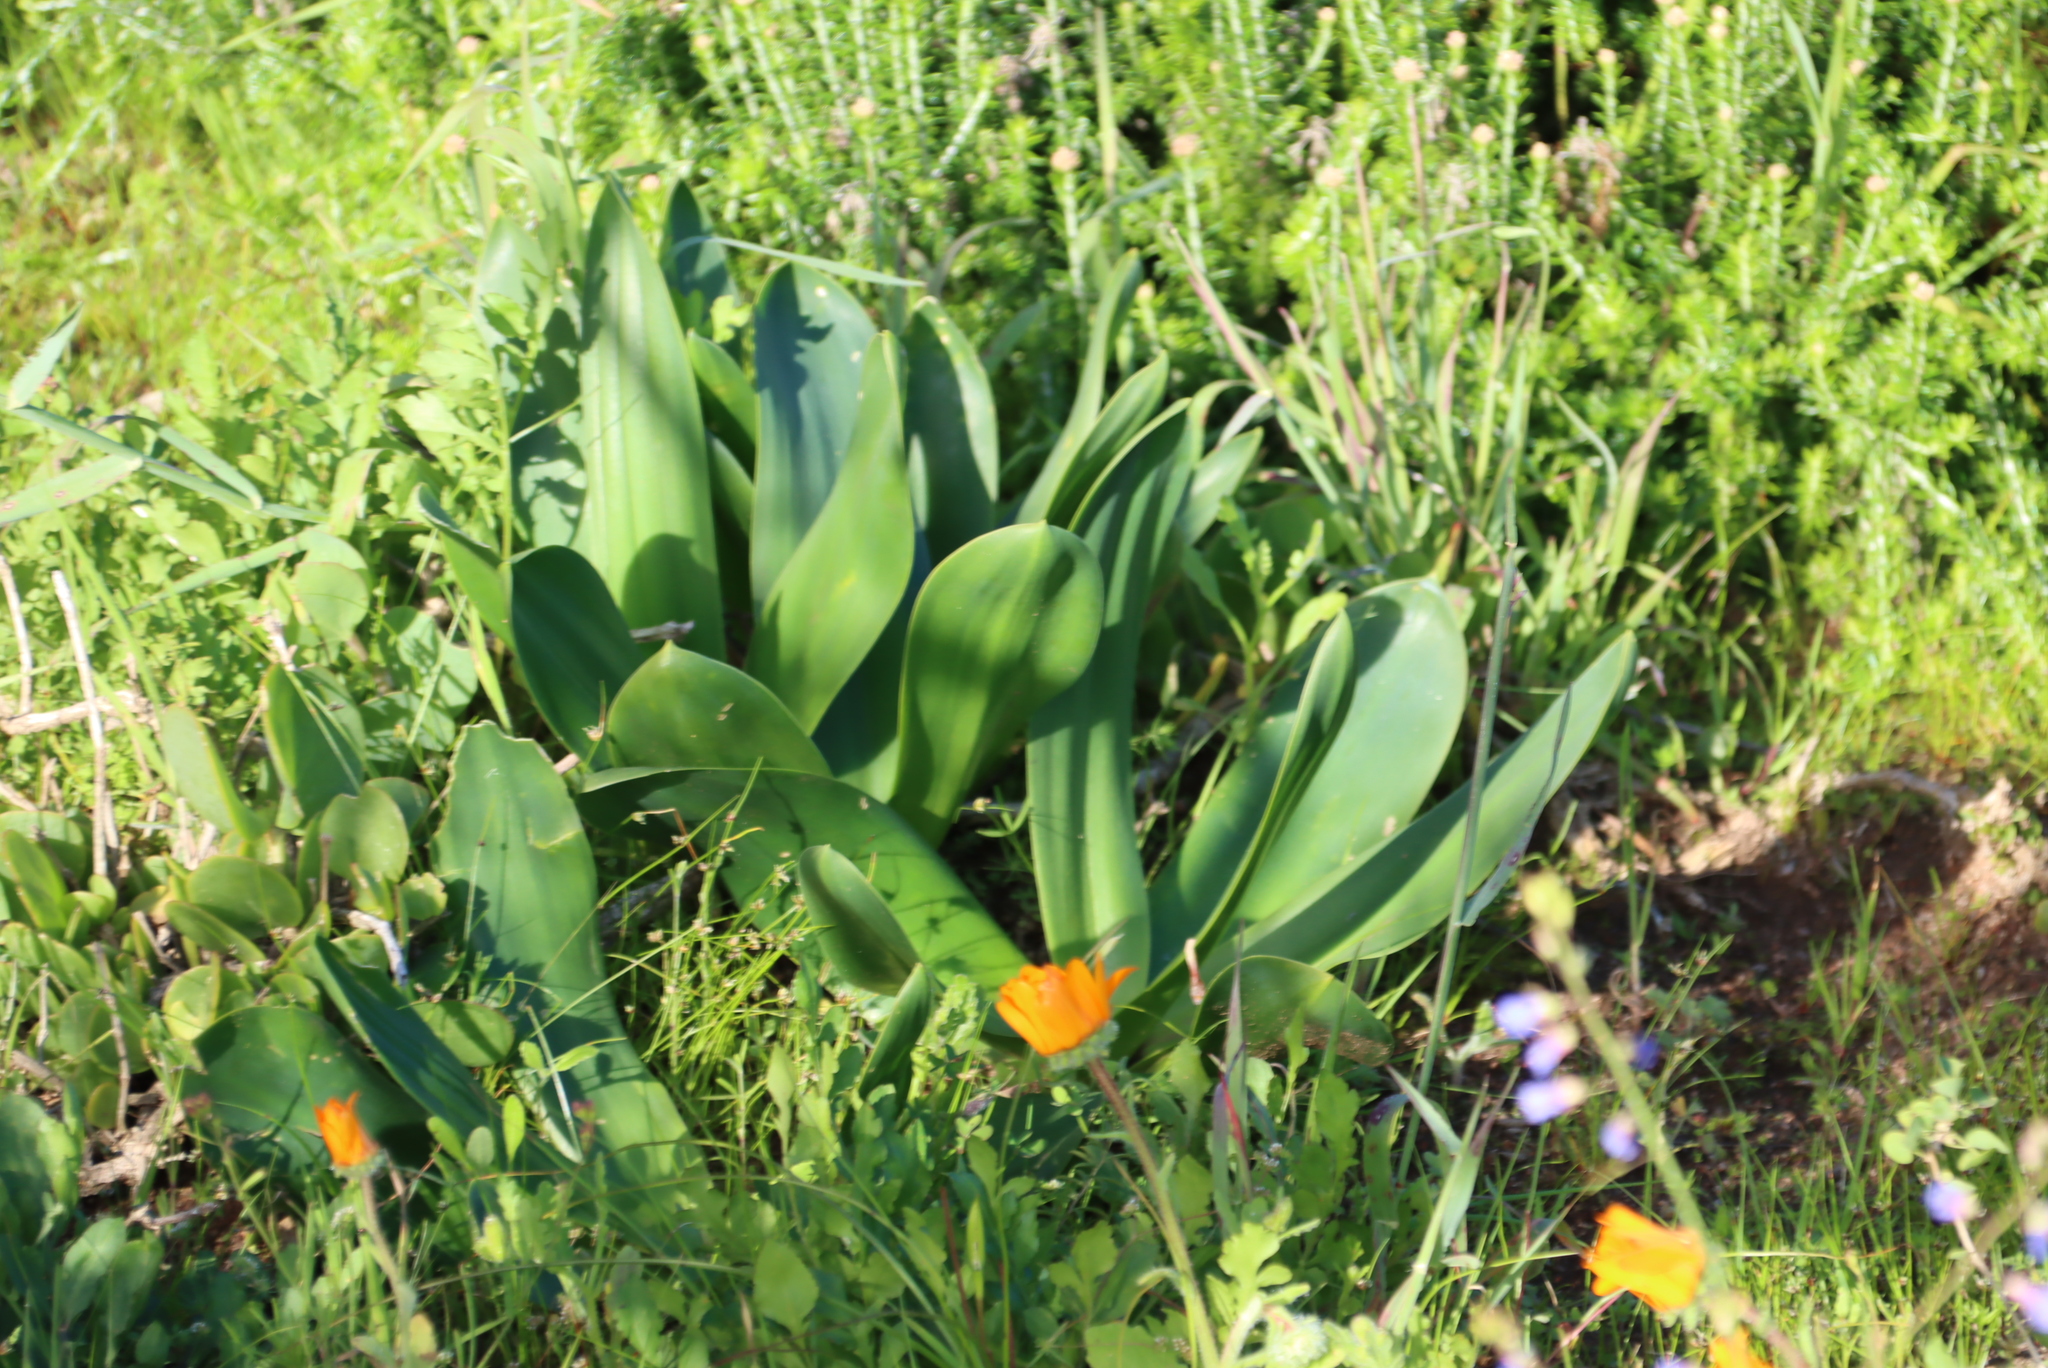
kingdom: Plantae
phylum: Tracheophyta
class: Liliopsida
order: Asparagales
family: Asparagaceae
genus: Drimia
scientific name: Drimia capensis
